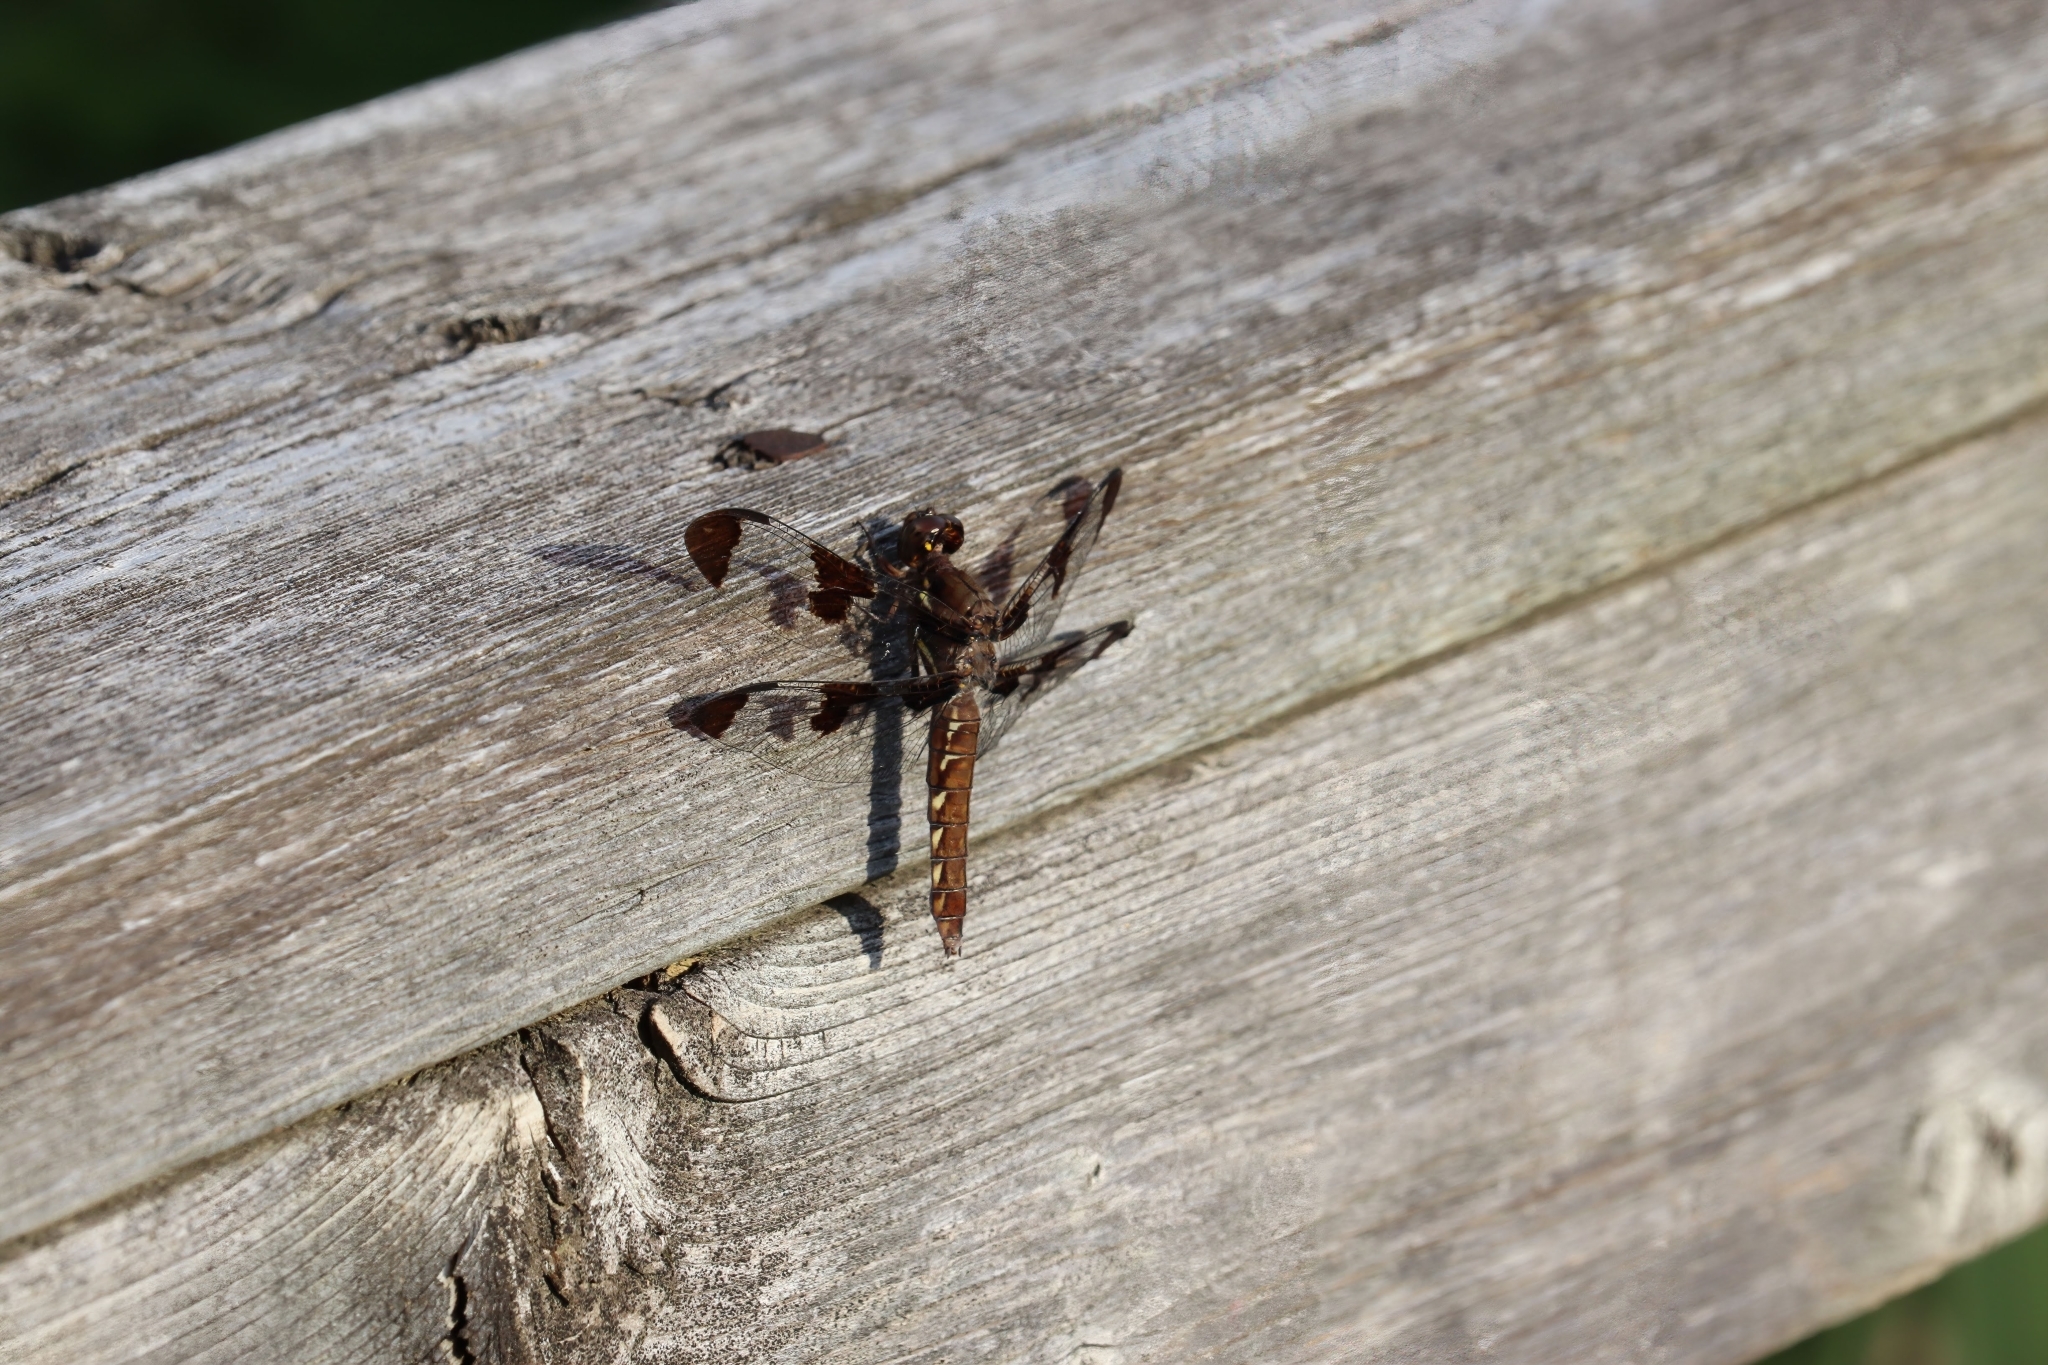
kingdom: Animalia
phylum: Arthropoda
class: Insecta
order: Odonata
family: Libellulidae
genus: Plathemis
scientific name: Plathemis lydia
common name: Common whitetail
